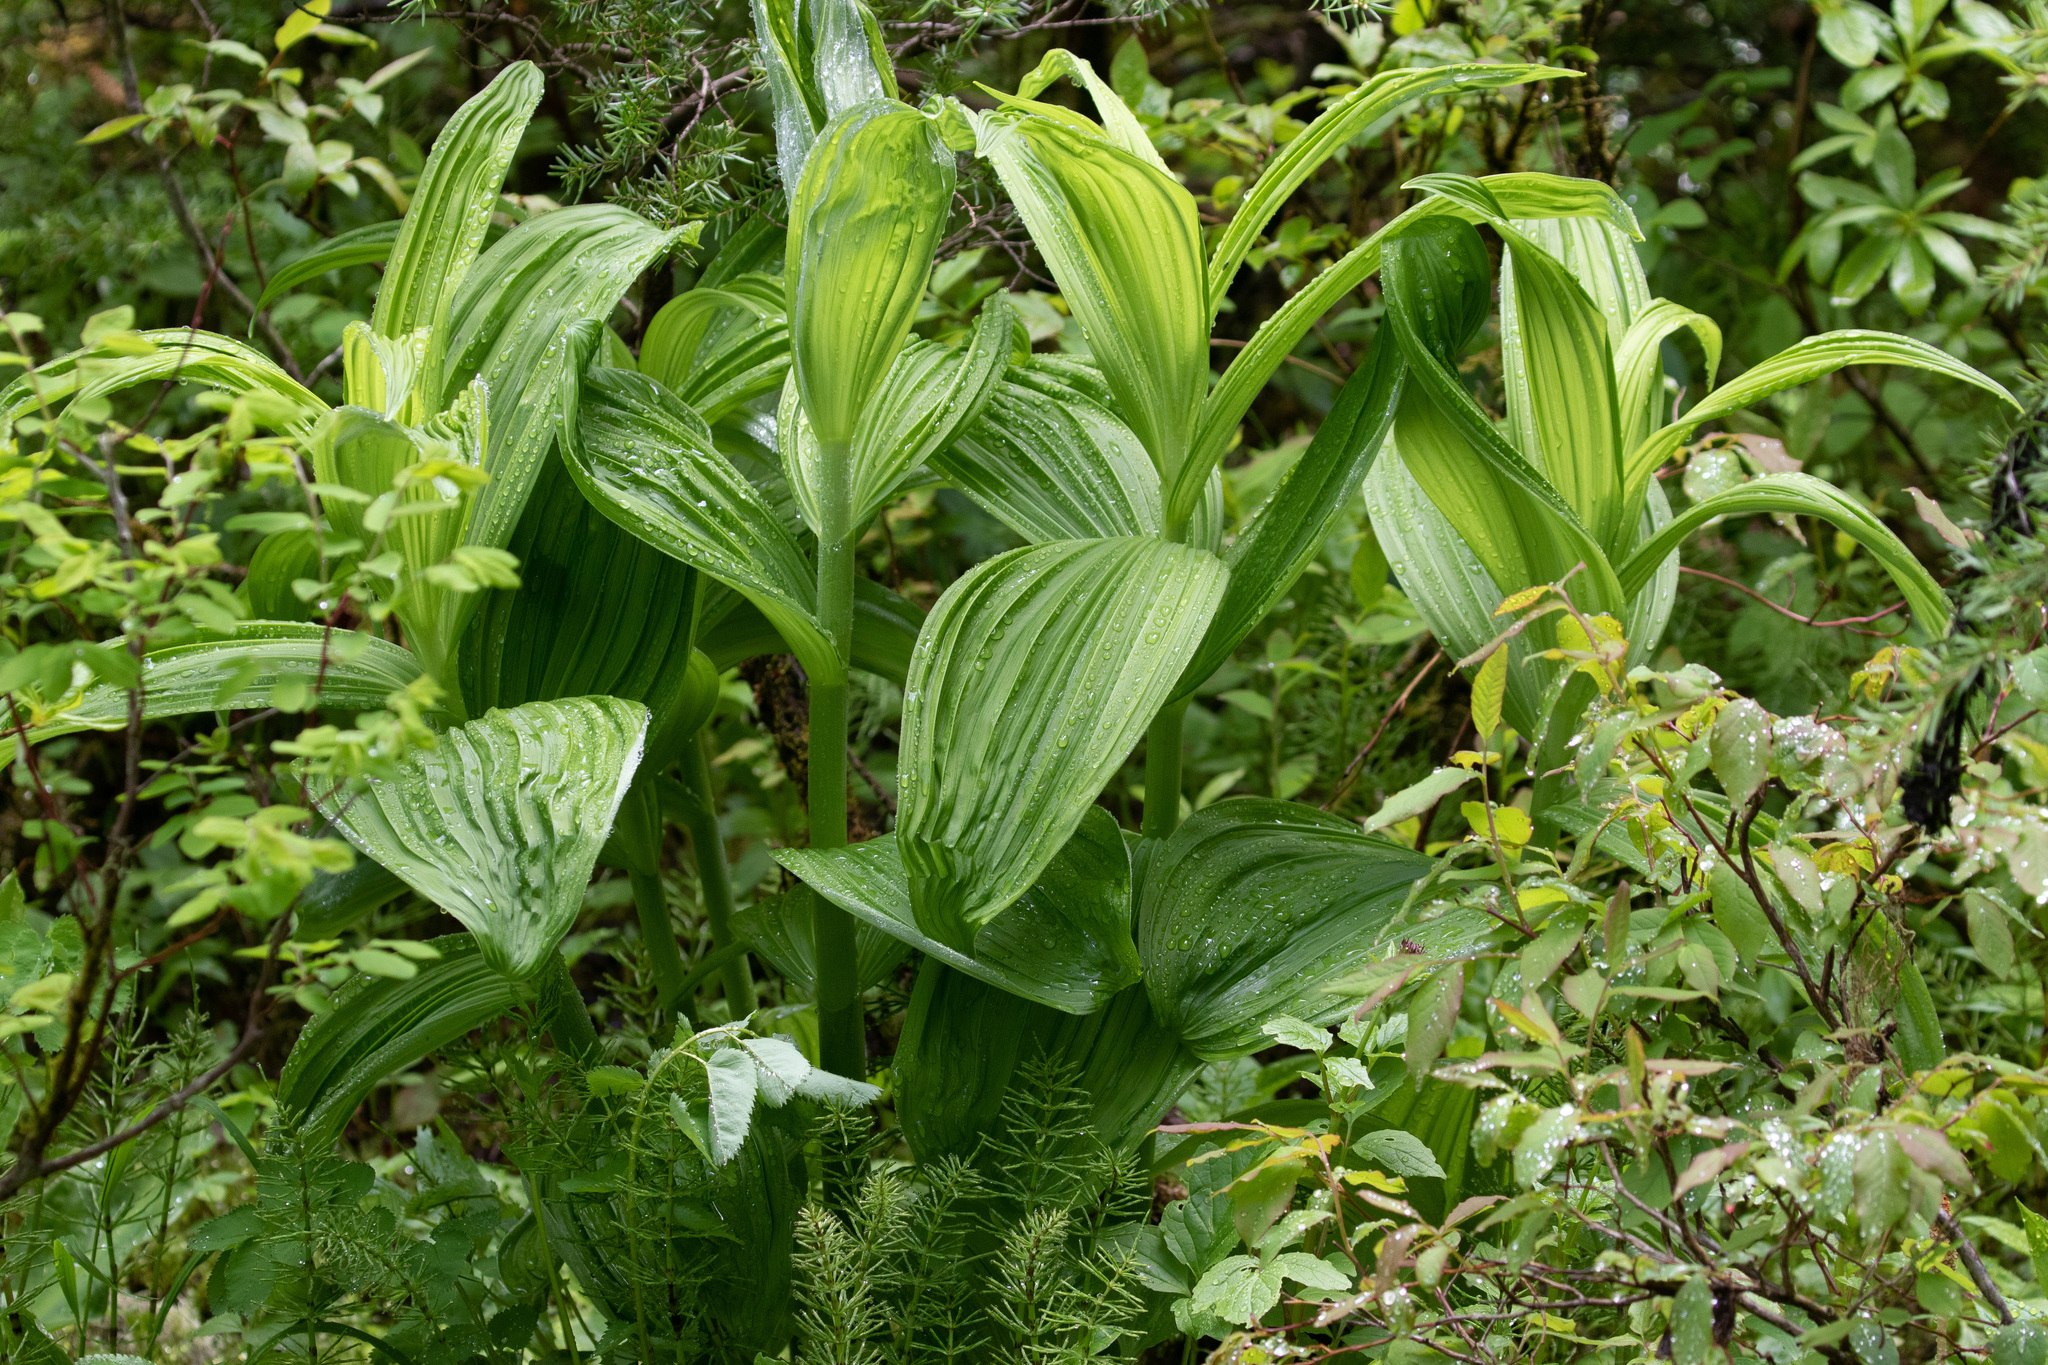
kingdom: Plantae
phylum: Tracheophyta
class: Liliopsida
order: Liliales
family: Melanthiaceae
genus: Veratrum
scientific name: Veratrum viride
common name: American false hellebore
